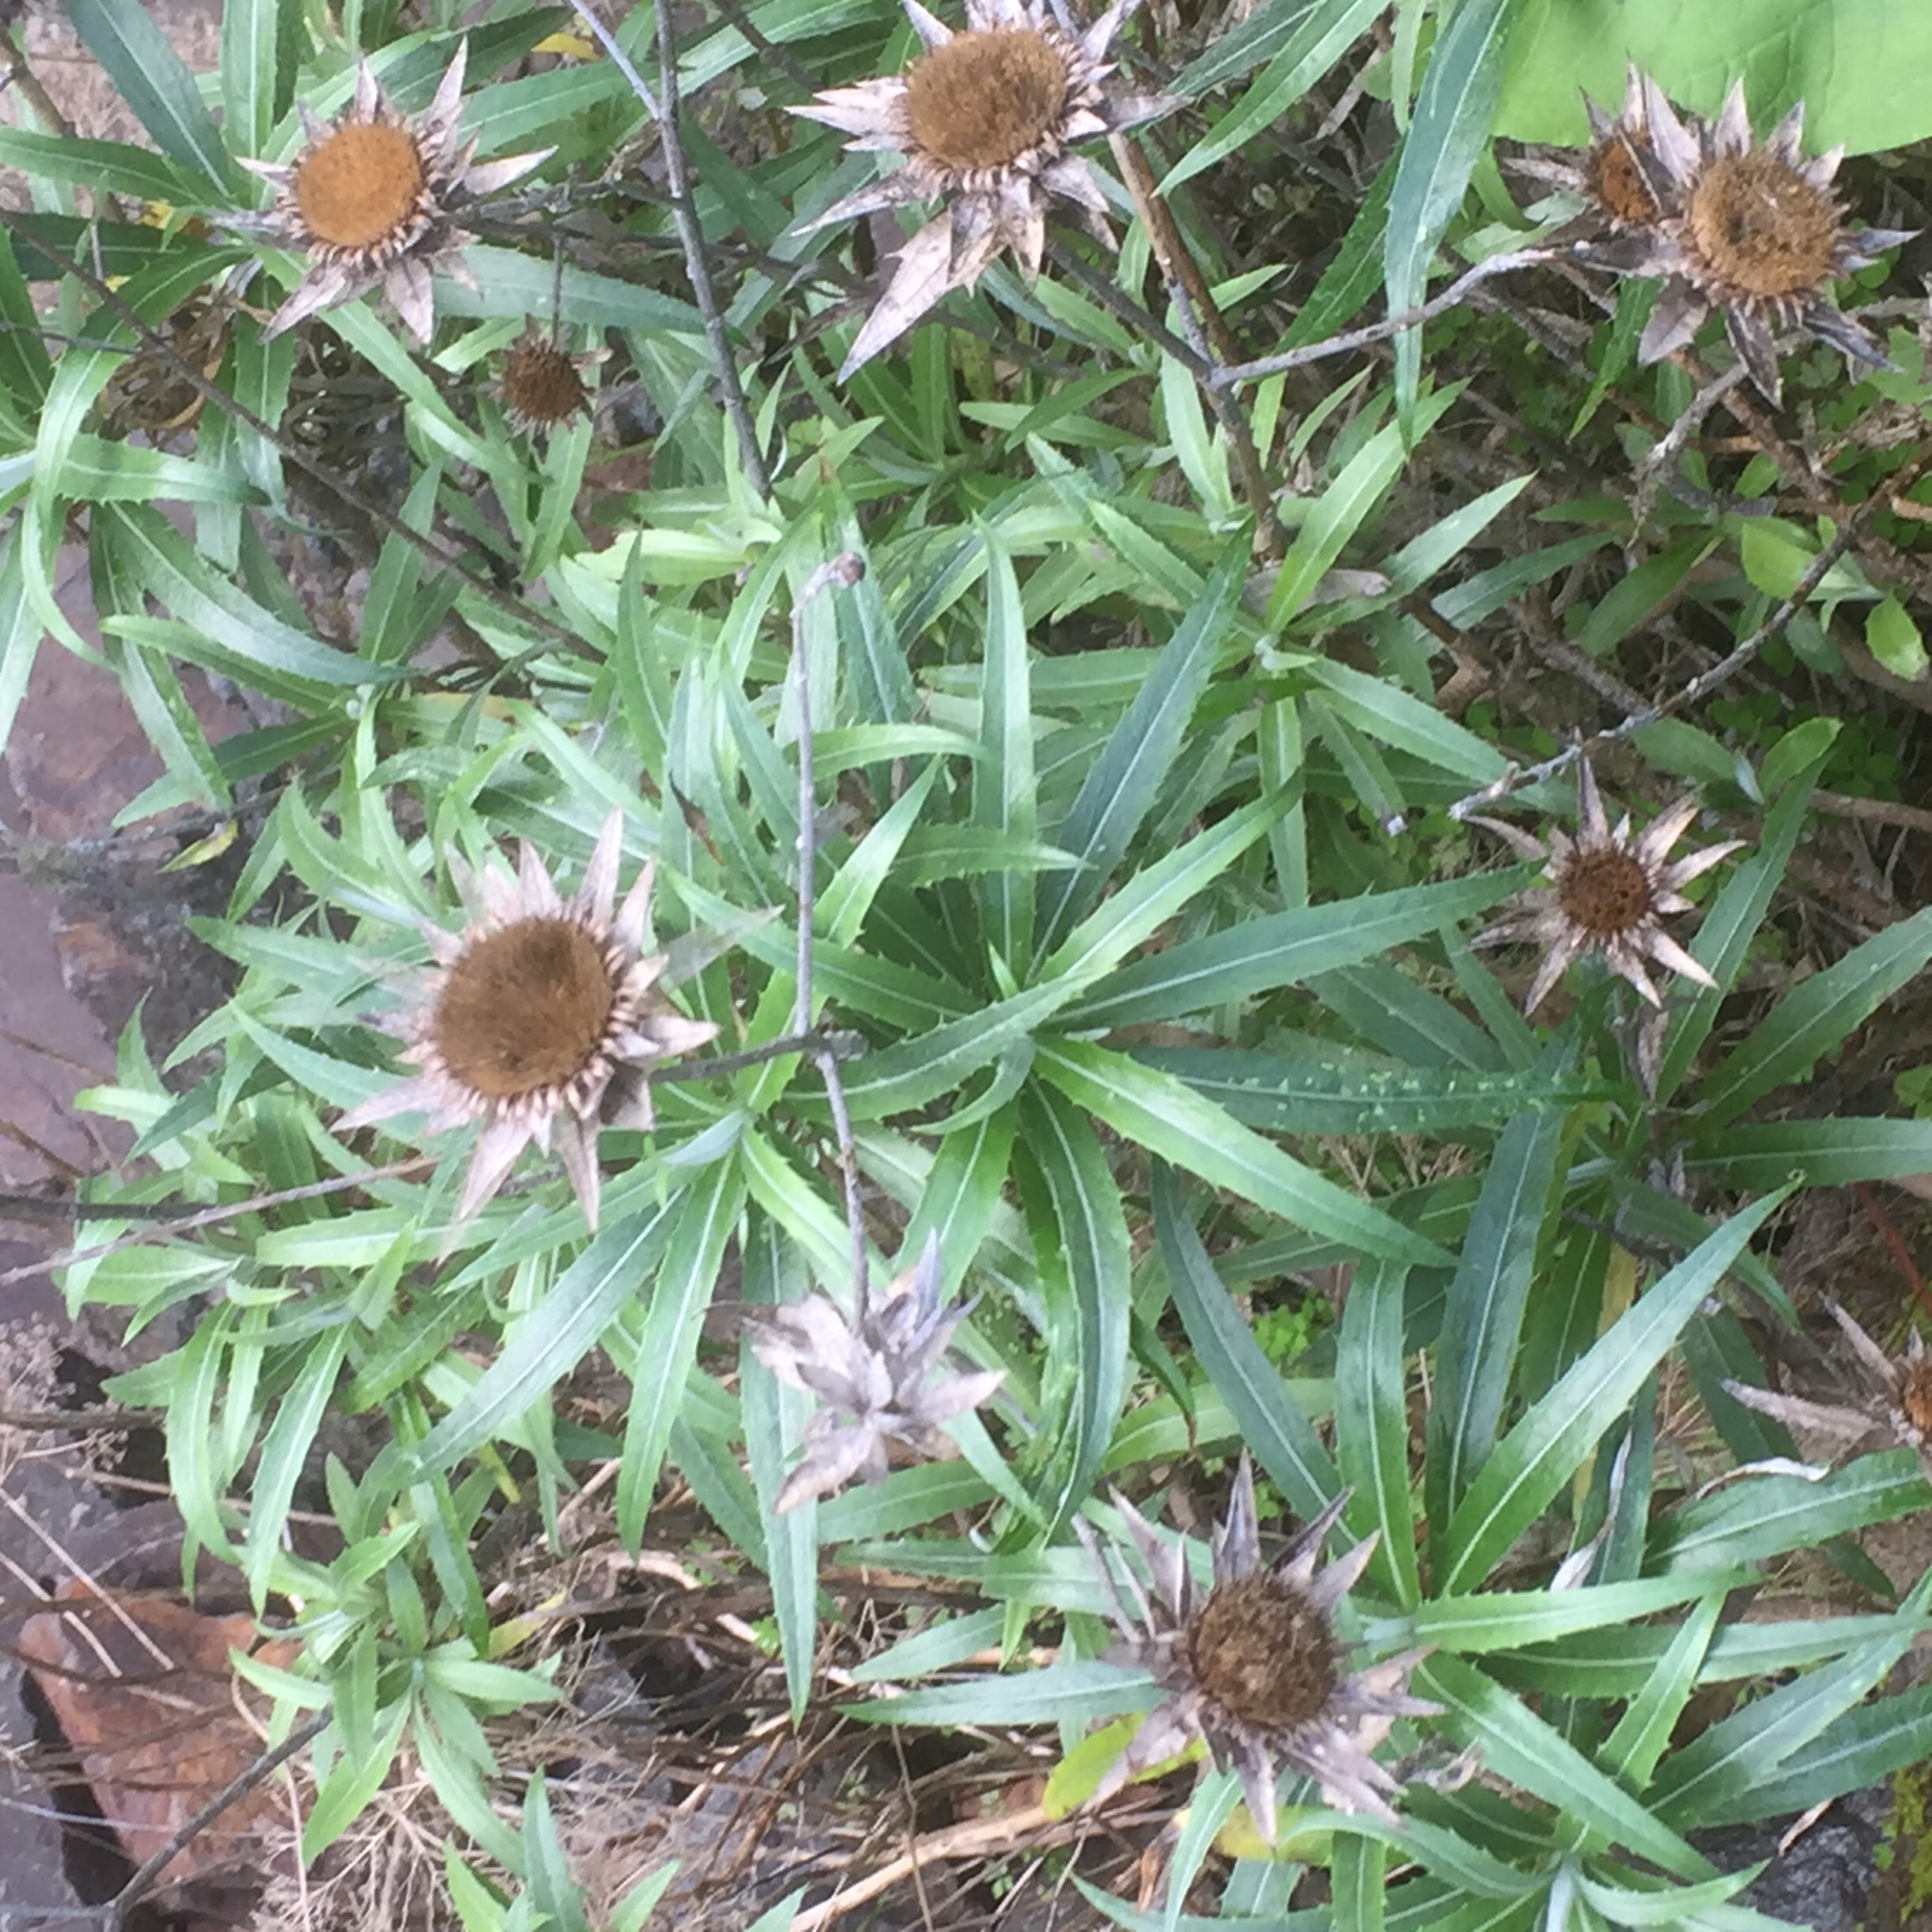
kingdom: Plantae
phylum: Tracheophyta
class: Magnoliopsida
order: Asterales
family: Asteraceae
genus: Carlina
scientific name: Carlina salicifolia
